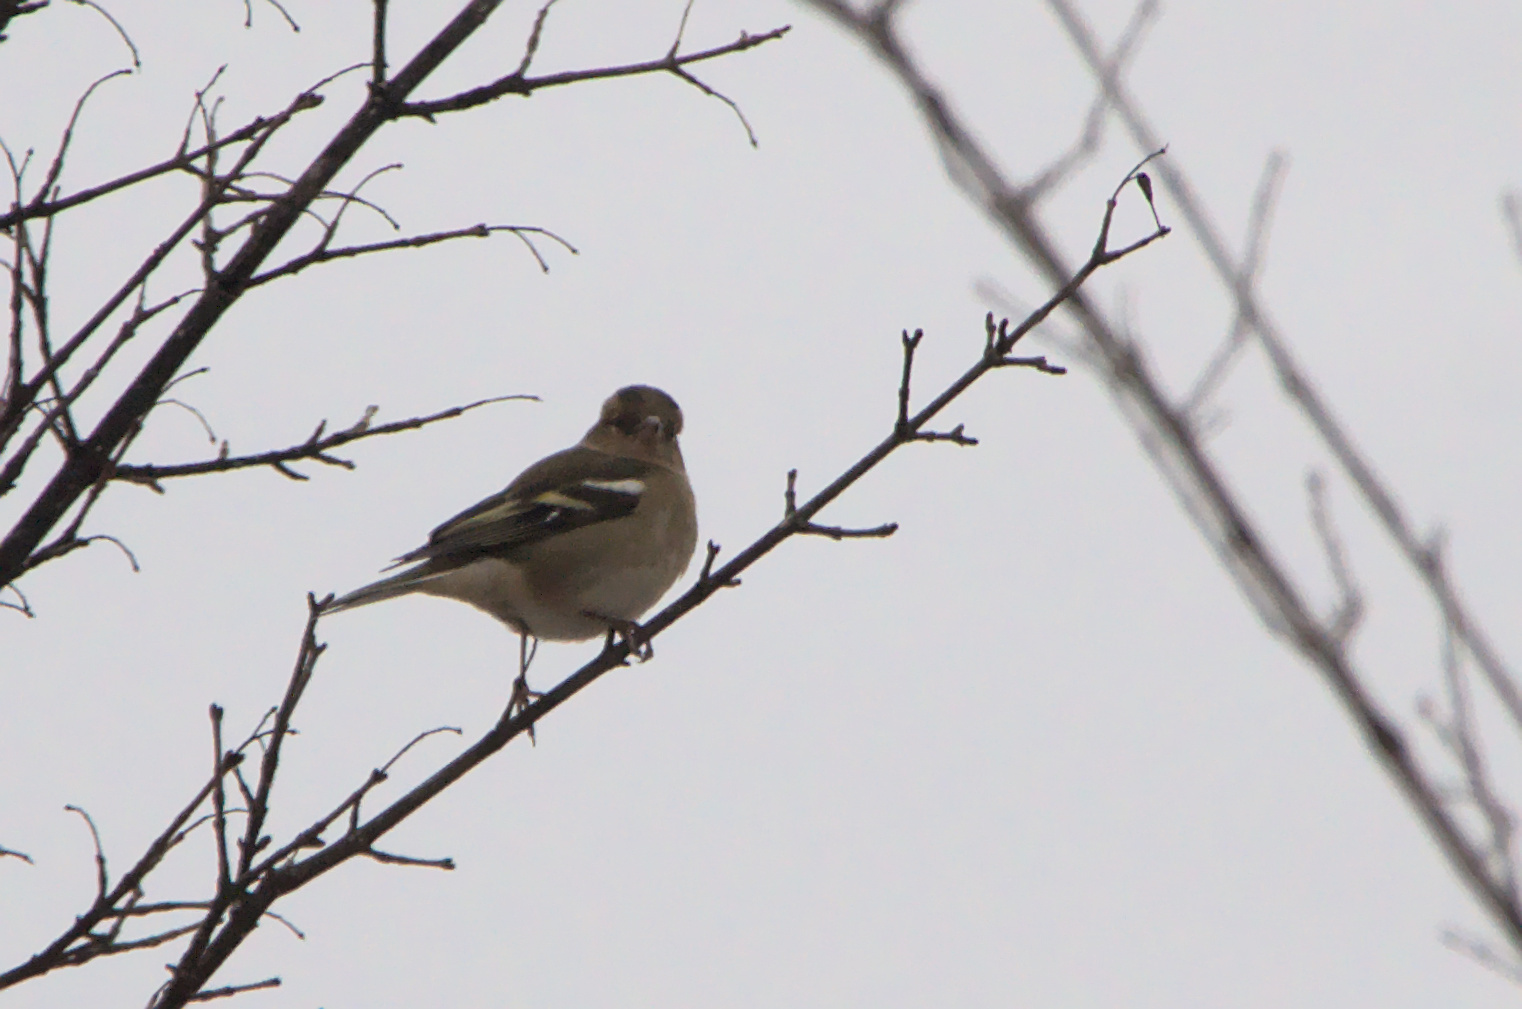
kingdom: Animalia
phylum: Chordata
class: Aves
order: Passeriformes
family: Fringillidae
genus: Fringilla
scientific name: Fringilla coelebs
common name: Common chaffinch
